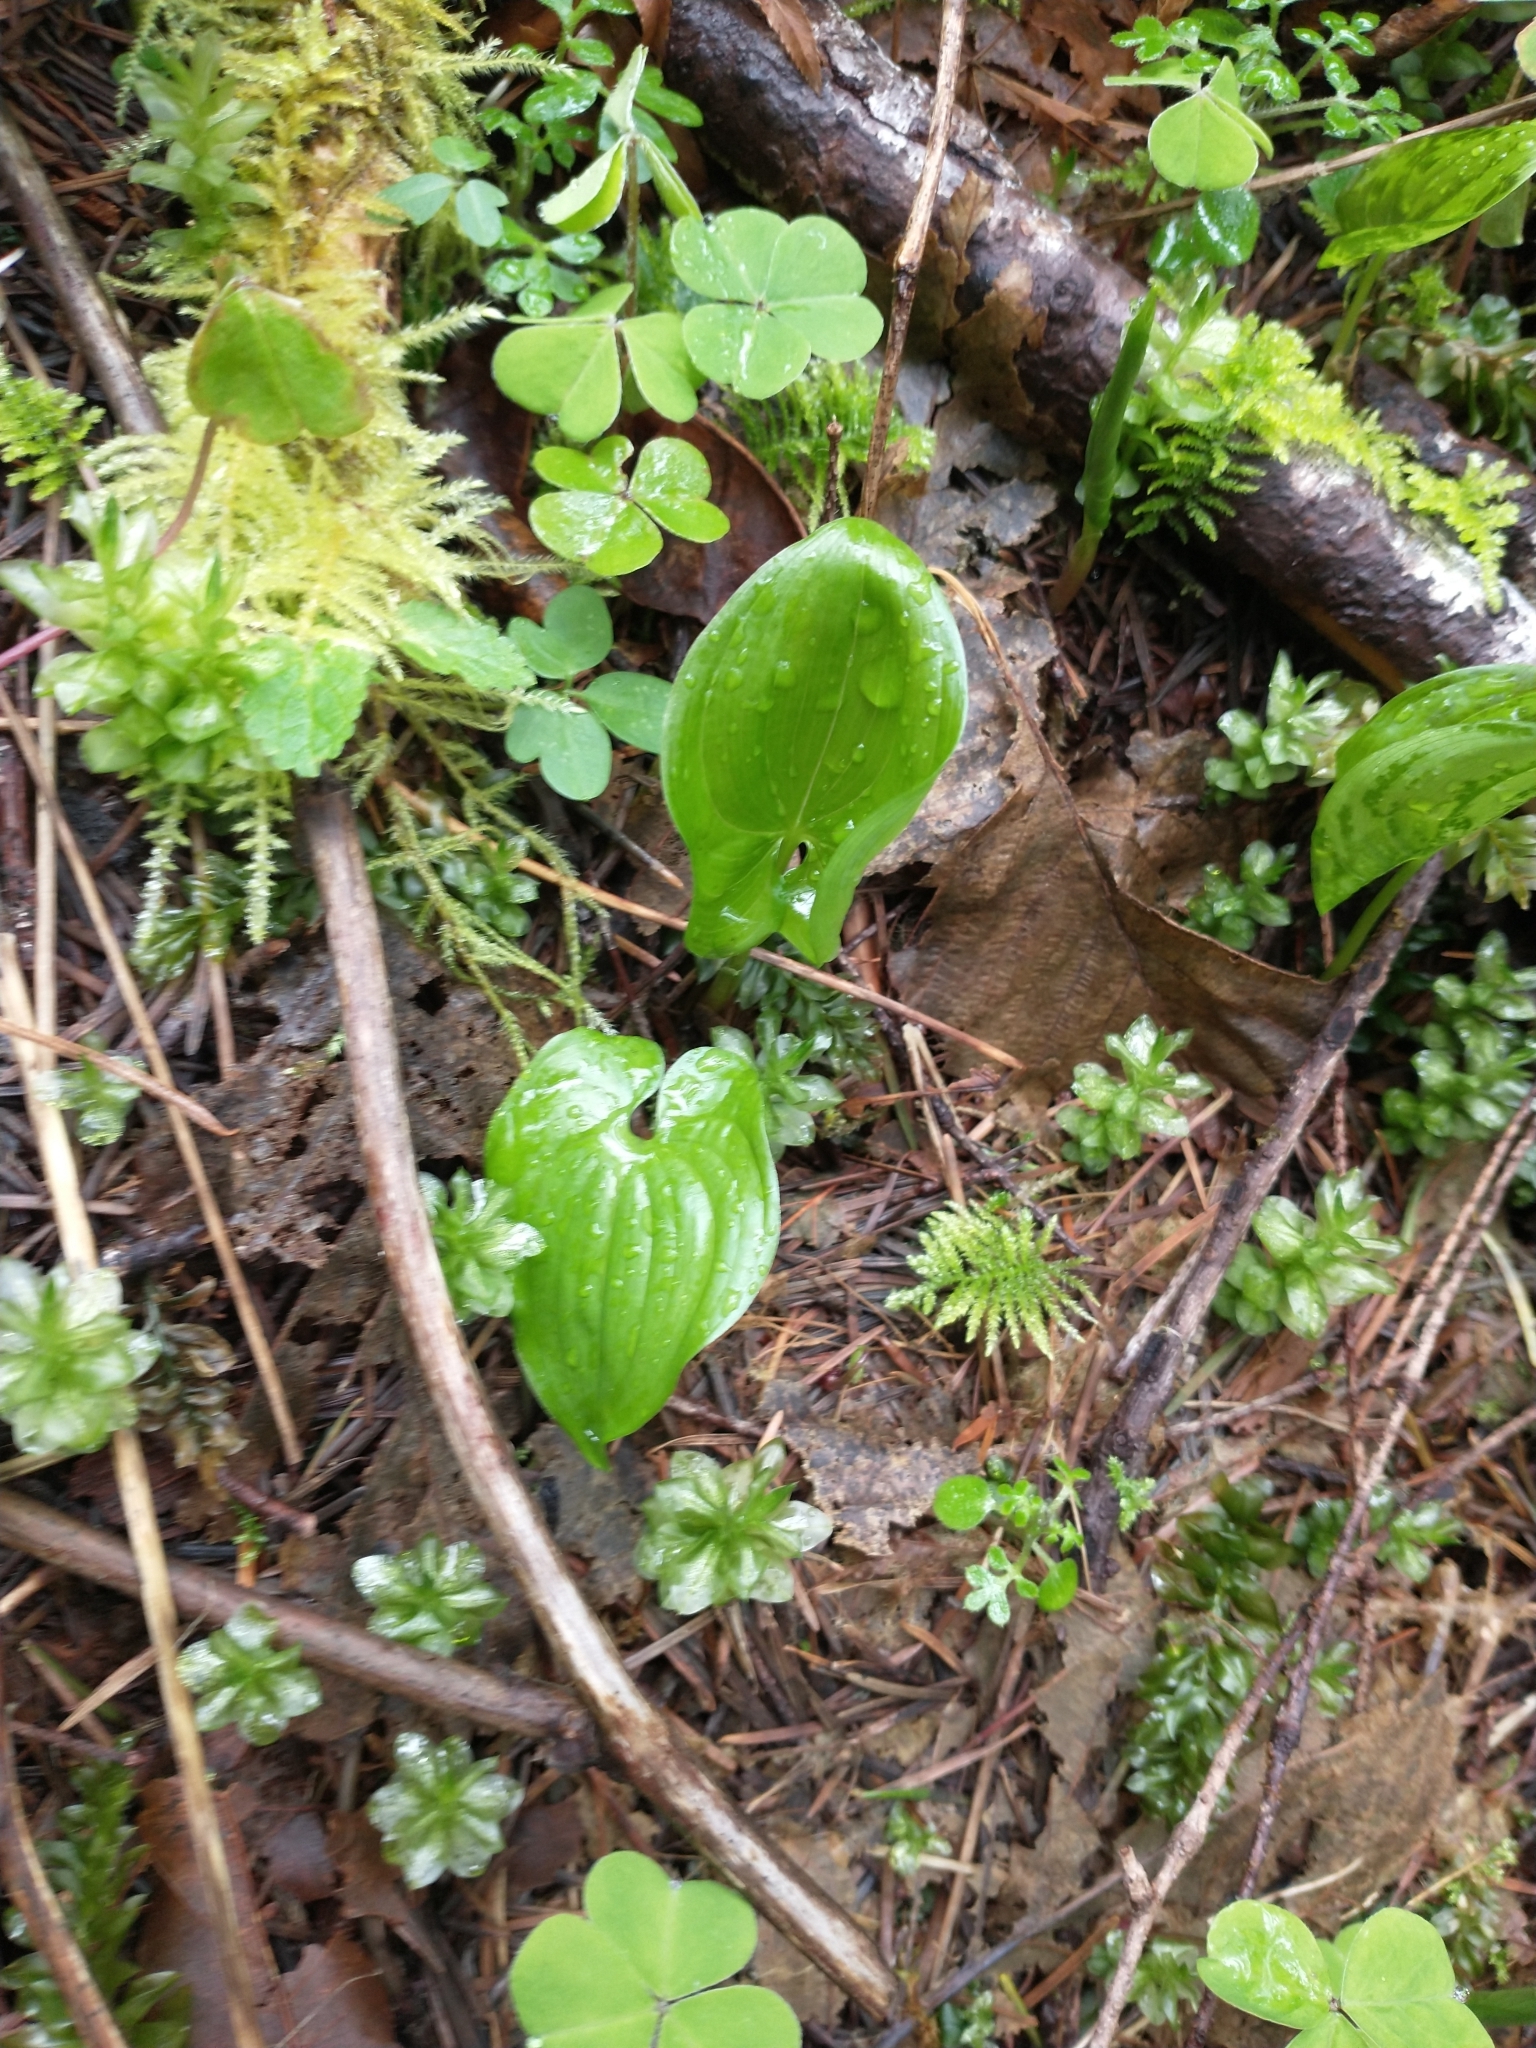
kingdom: Plantae
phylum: Tracheophyta
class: Liliopsida
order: Asparagales
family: Asparagaceae
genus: Maianthemum
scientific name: Maianthemum dilatatum
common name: False lily-of-the-valley
